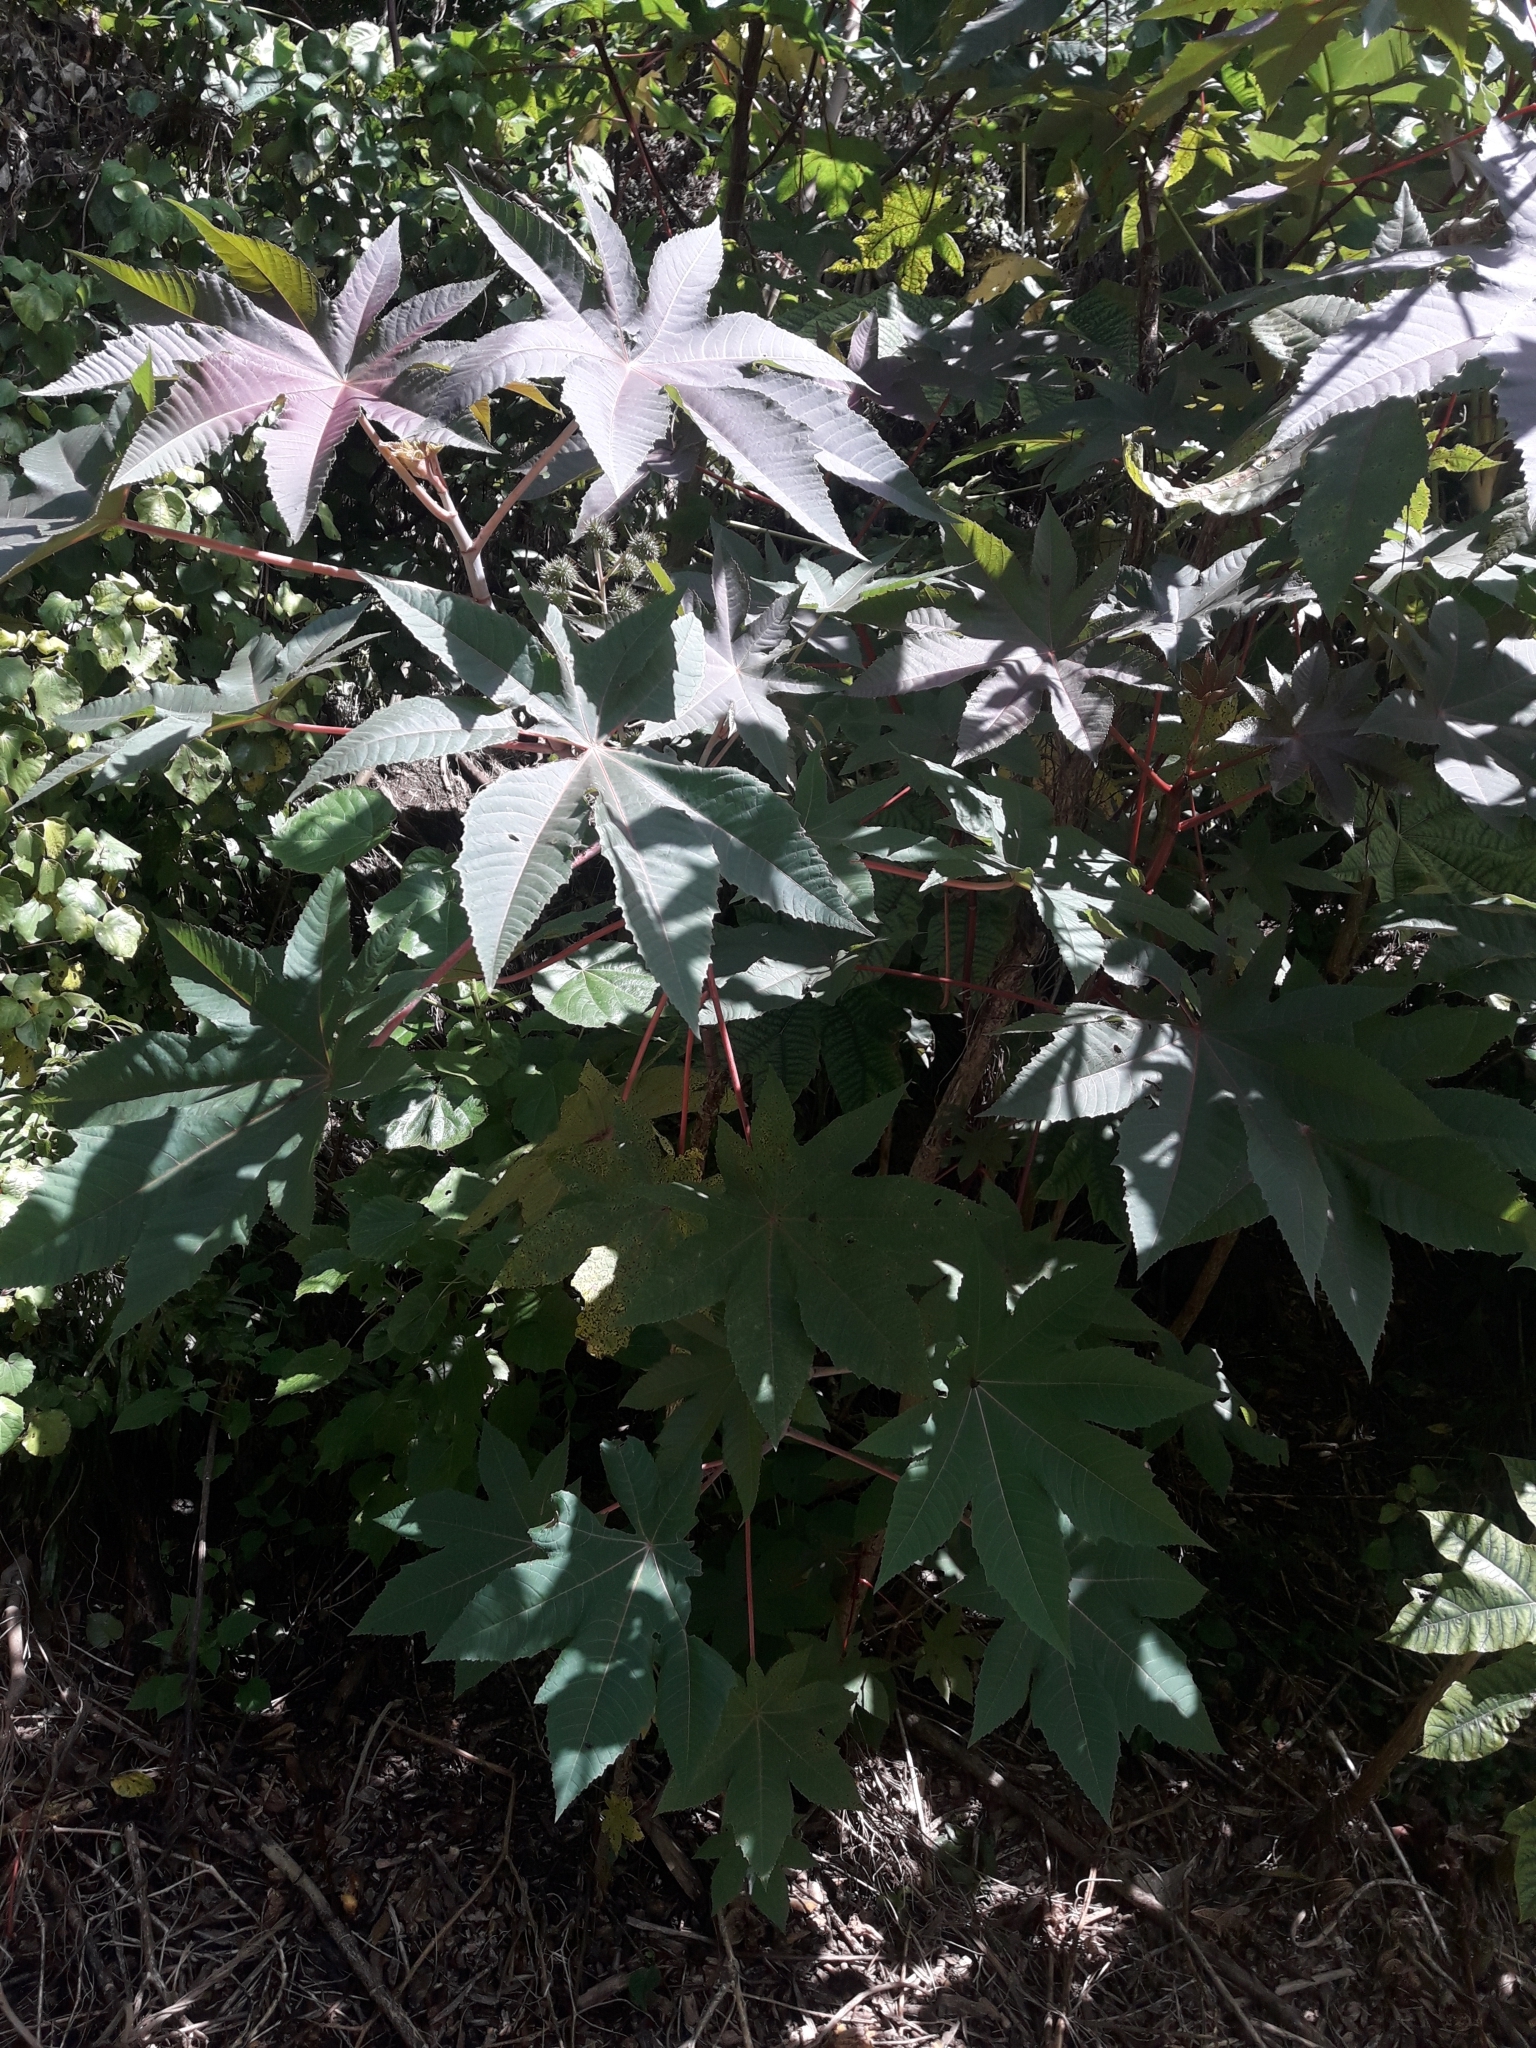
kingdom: Plantae
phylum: Tracheophyta
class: Magnoliopsida
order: Malpighiales
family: Euphorbiaceae
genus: Ricinus
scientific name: Ricinus communis
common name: Castor-oil-plant
